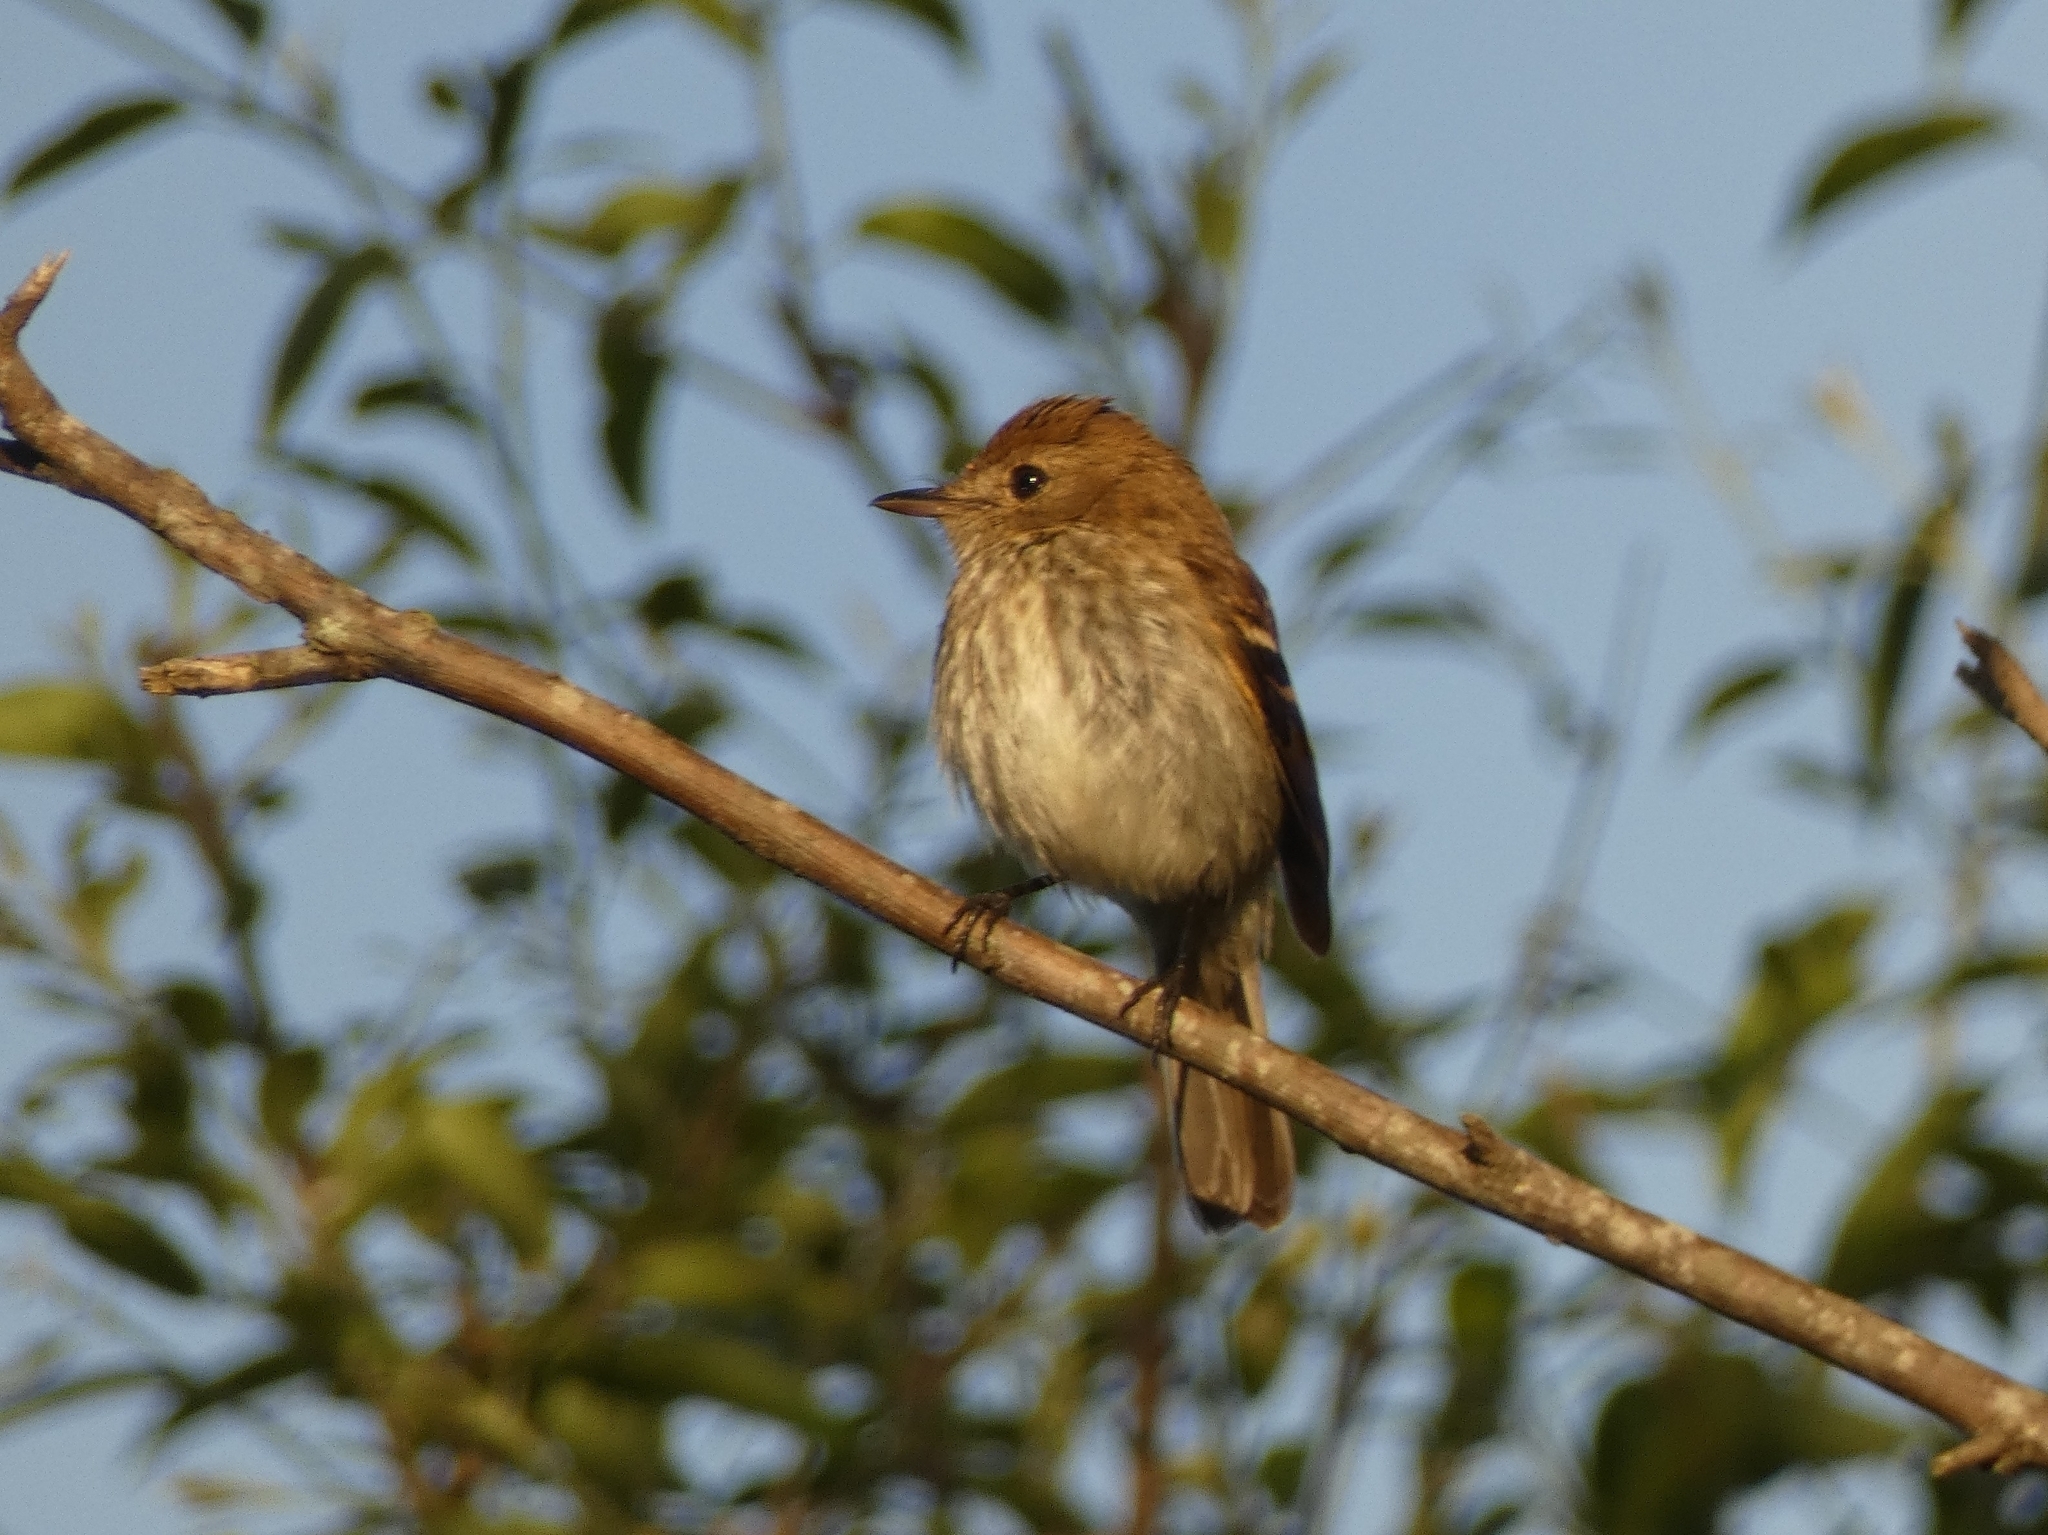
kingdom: Animalia
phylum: Chordata
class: Aves
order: Passeriformes
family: Tyrannidae
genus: Myiophobus
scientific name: Myiophobus fasciatus
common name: Bran-colored flycatcher
